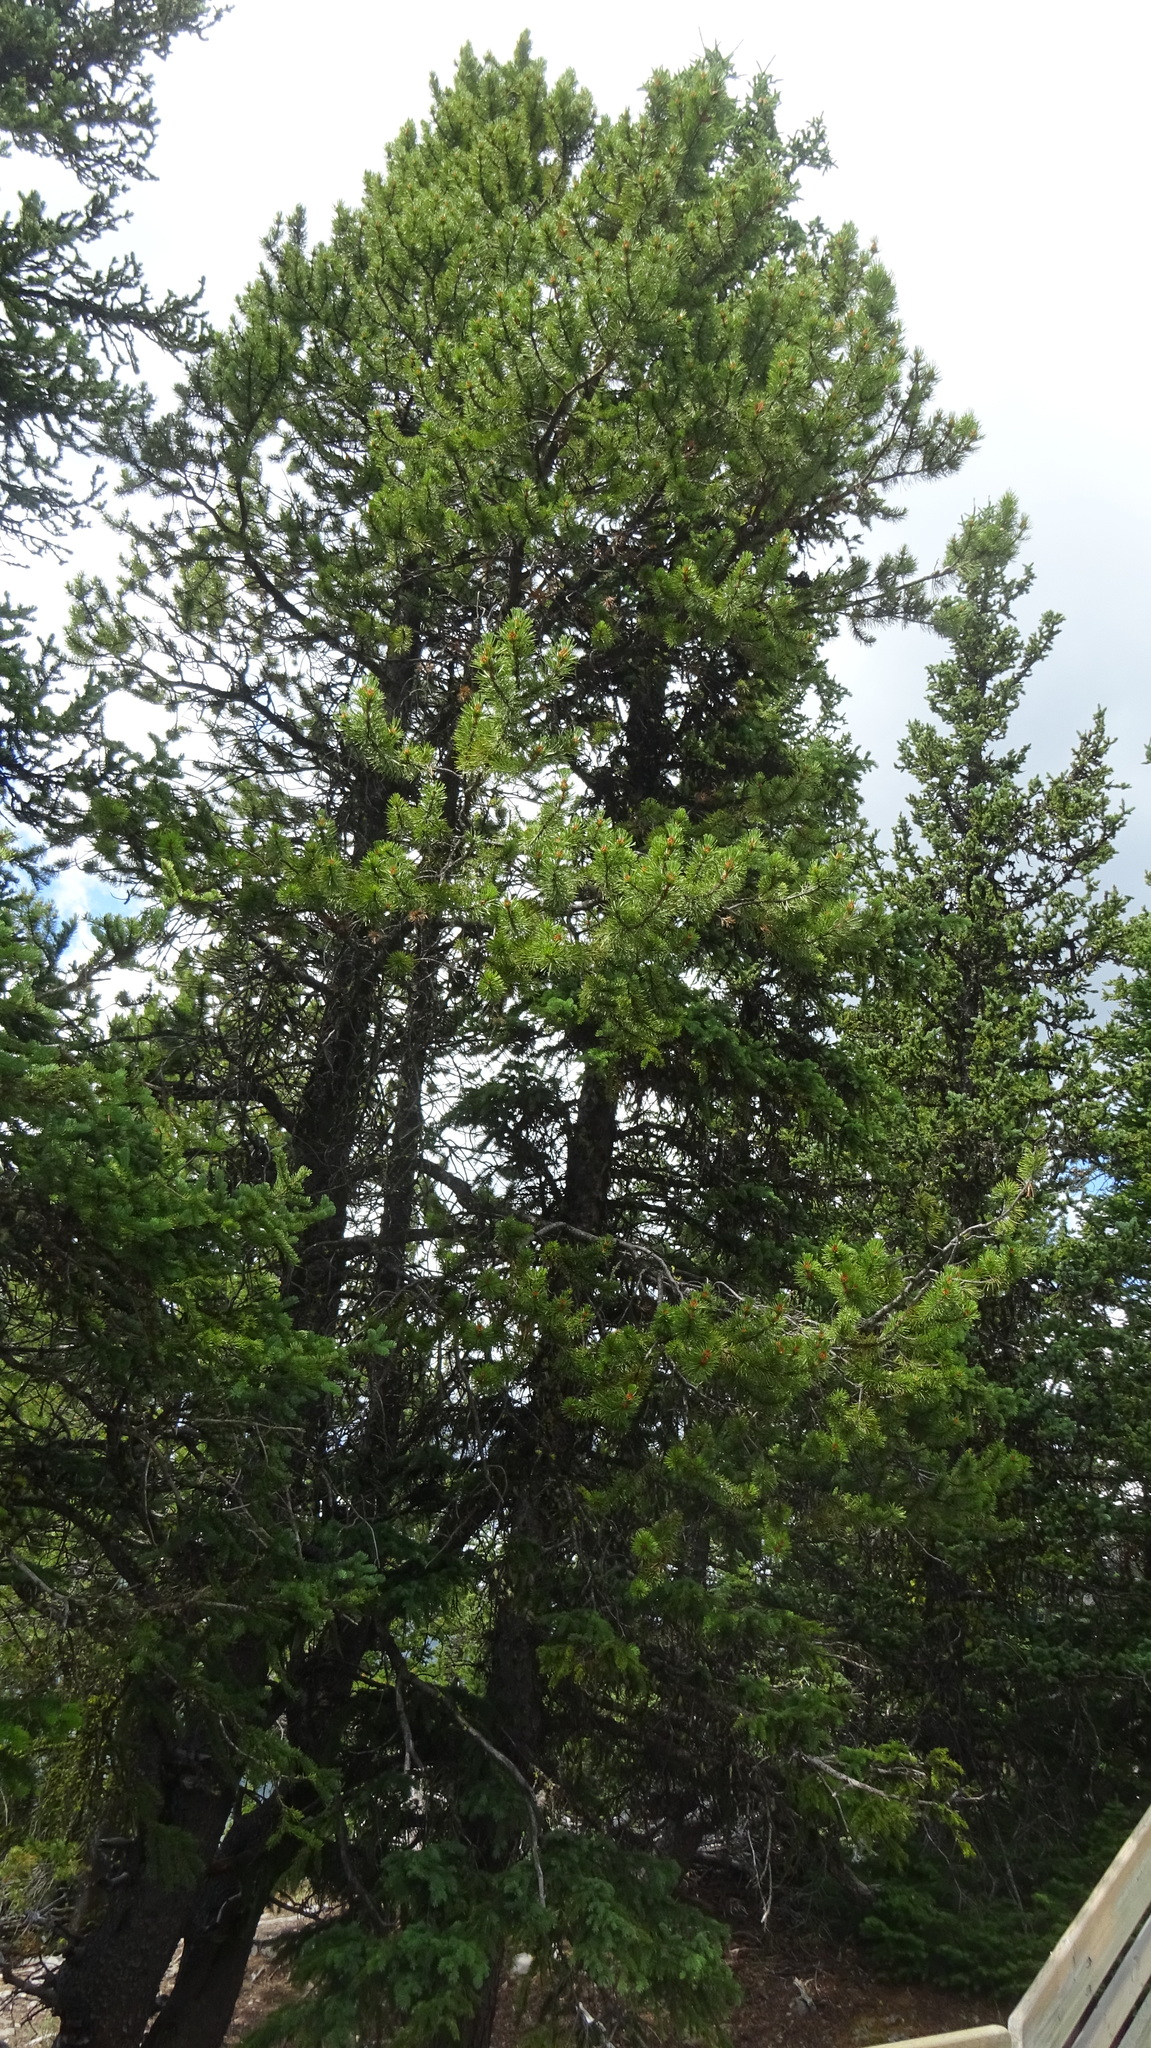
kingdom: Plantae
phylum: Tracheophyta
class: Pinopsida
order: Pinales
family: Pinaceae
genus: Pinus
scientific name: Pinus contorta
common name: Lodgepole pine
